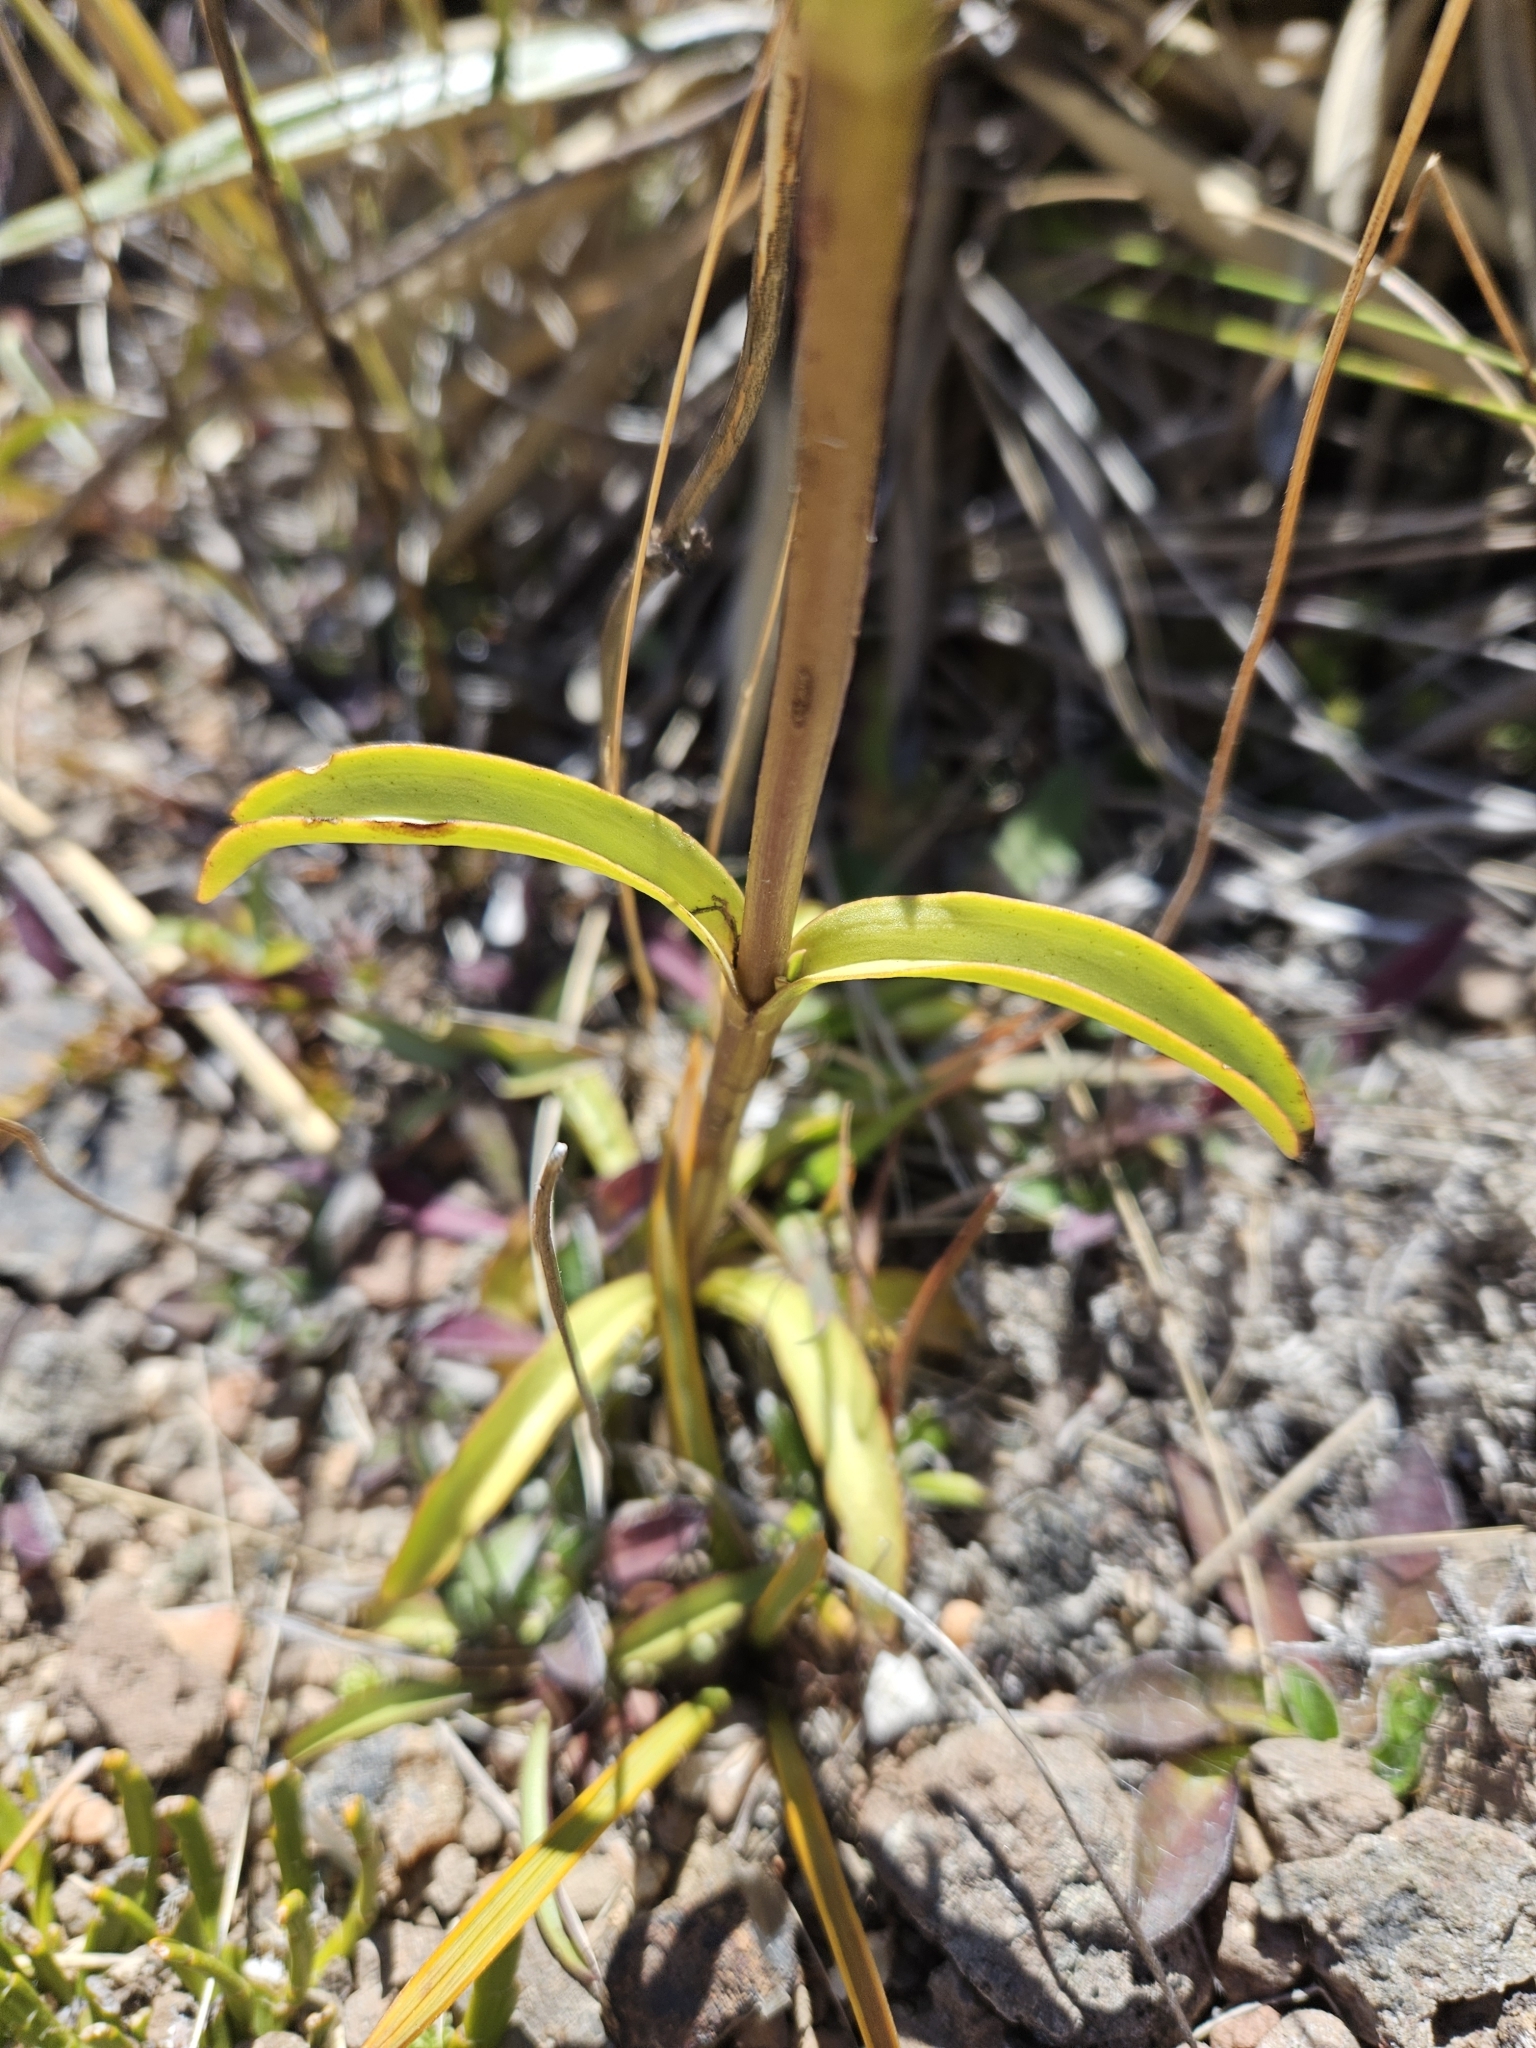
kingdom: Plantae
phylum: Tracheophyta
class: Magnoliopsida
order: Gentianales
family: Gentianaceae
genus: Gentianella
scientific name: Gentianella corymbifera
